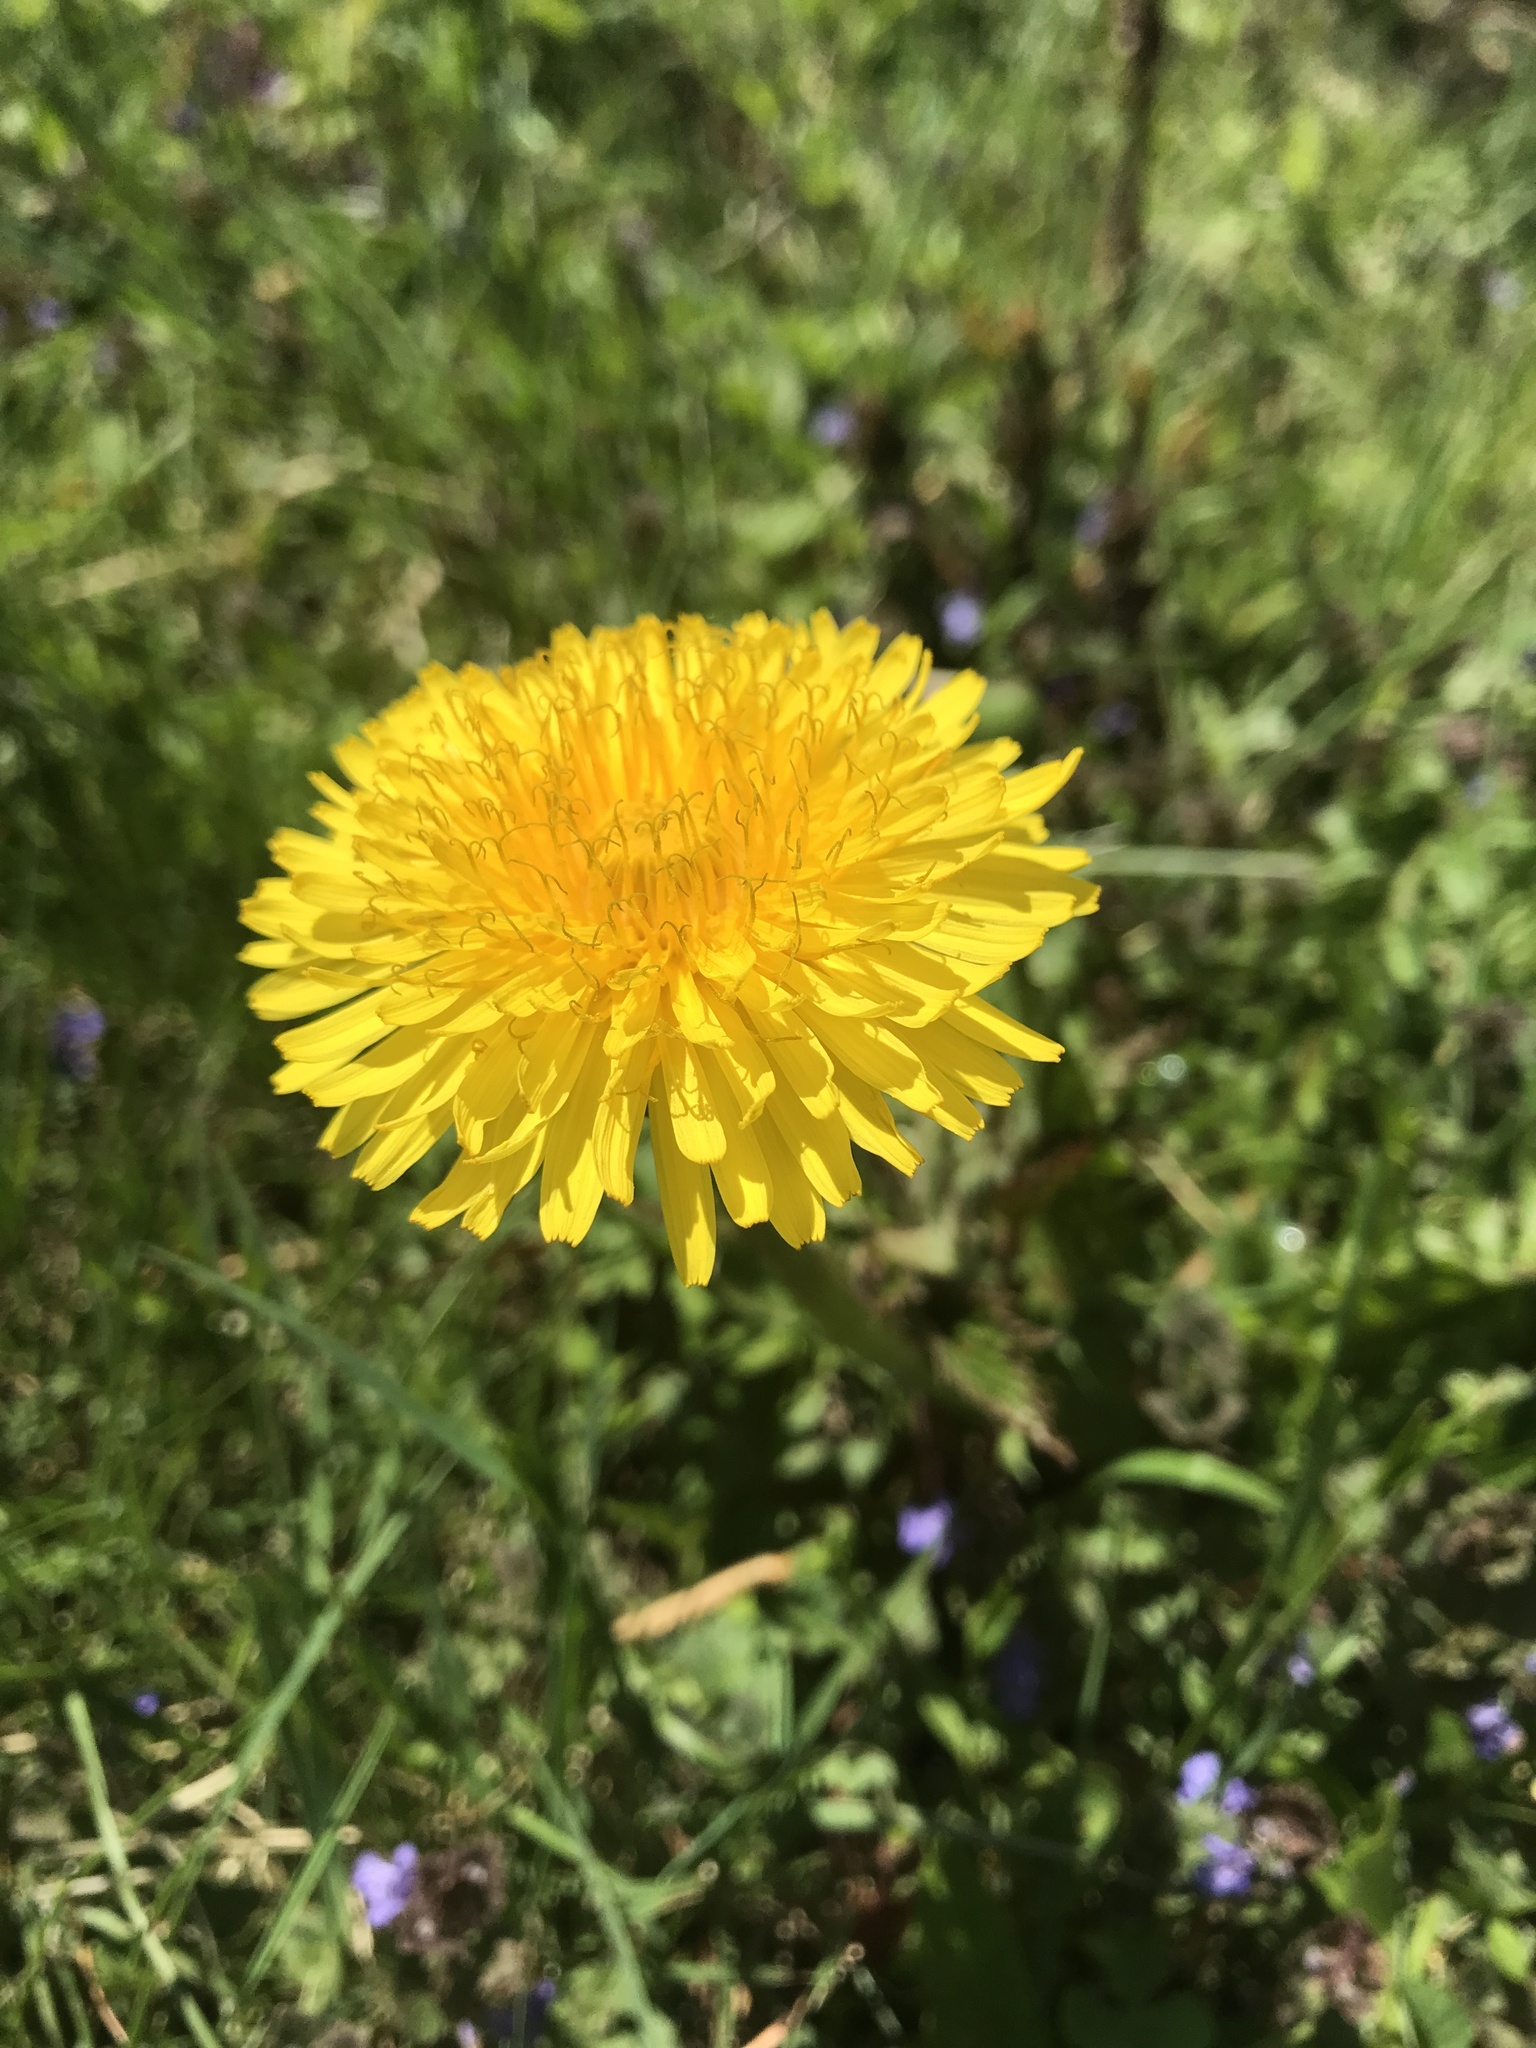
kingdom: Plantae
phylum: Tracheophyta
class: Magnoliopsida
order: Asterales
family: Asteraceae
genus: Taraxacum
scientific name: Taraxacum officinale
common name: Common dandelion
